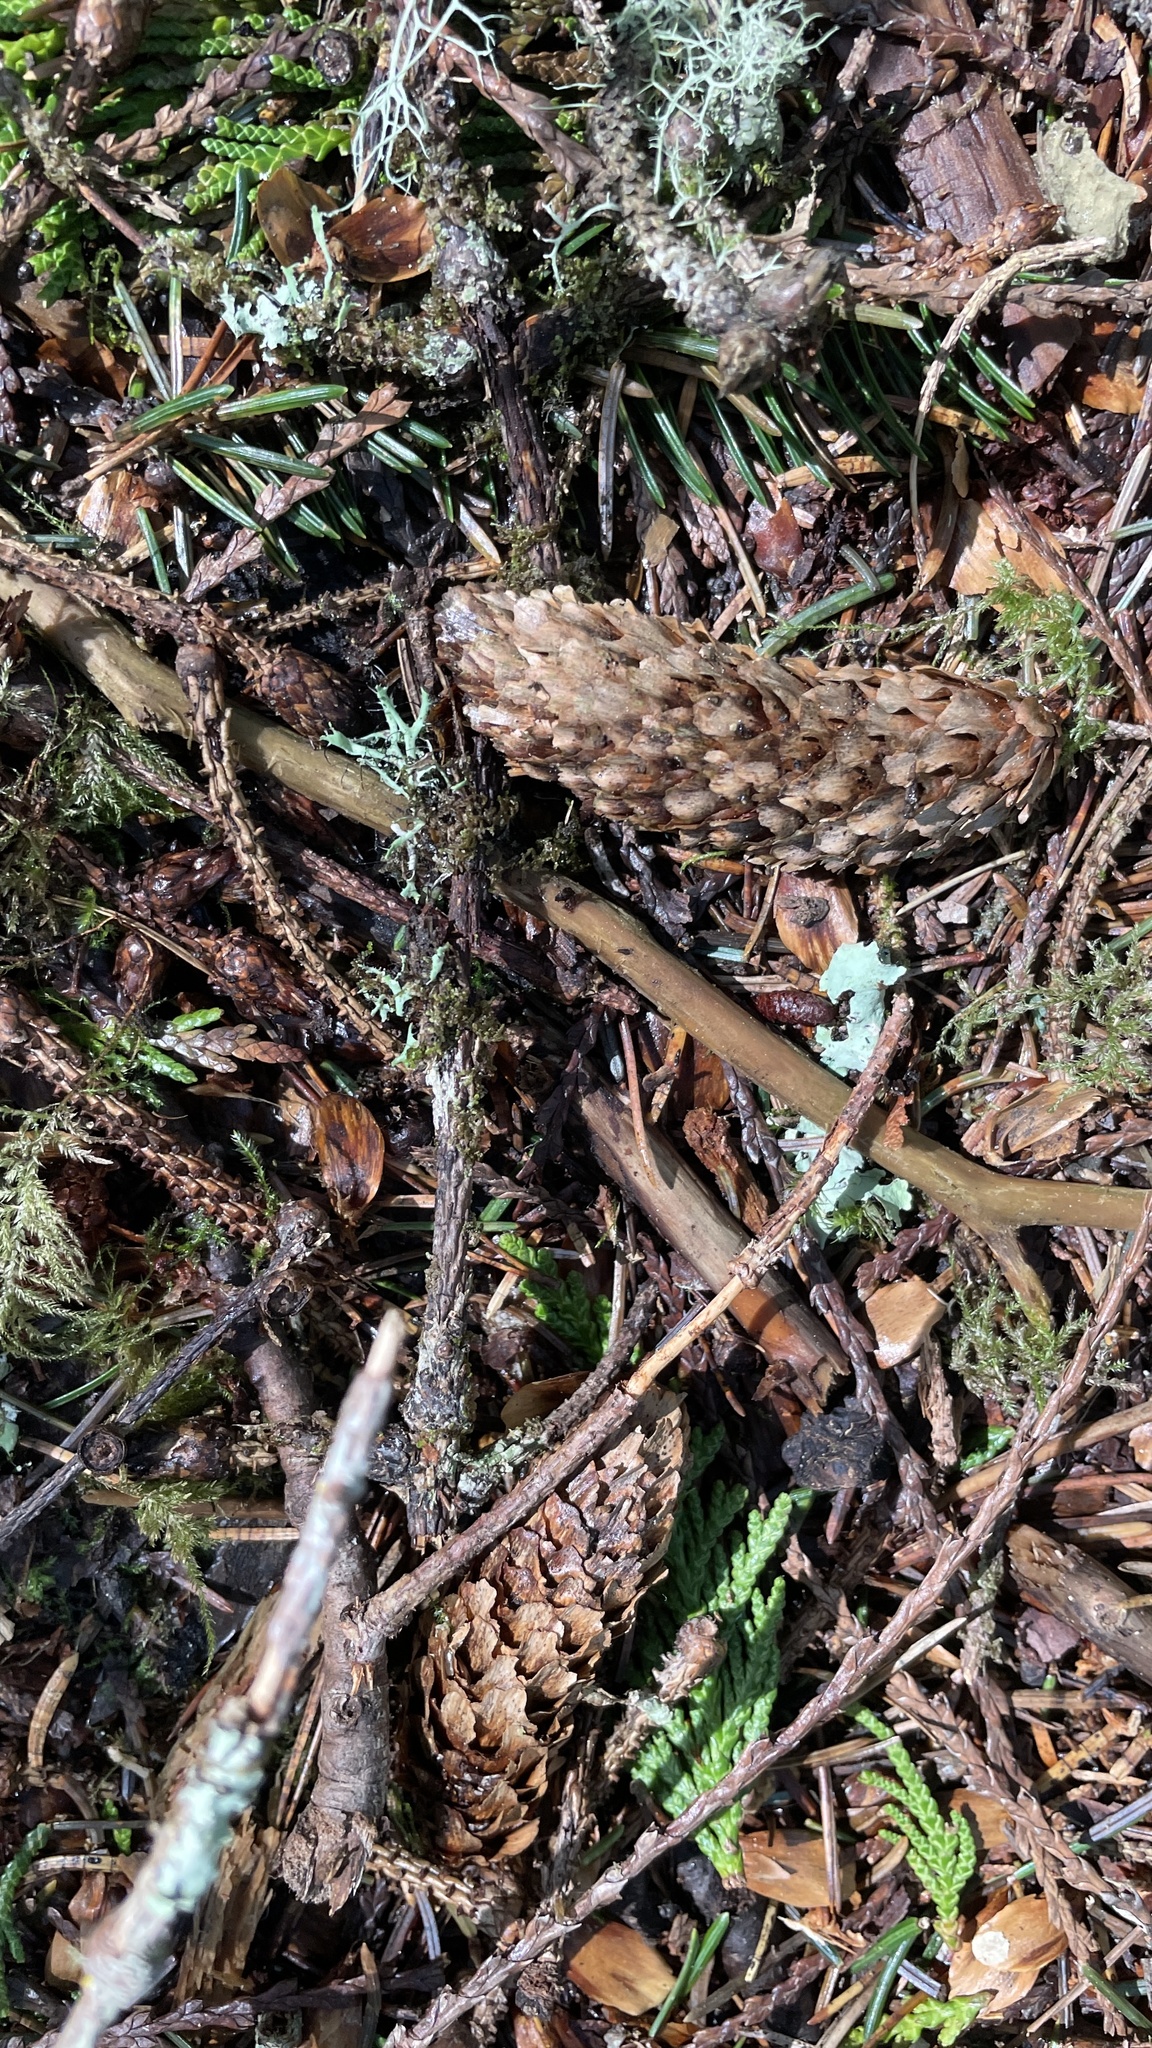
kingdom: Plantae
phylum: Tracheophyta
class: Pinopsida
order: Pinales
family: Pinaceae
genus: Picea
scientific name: Picea sitchensis
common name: Sitka spruce
